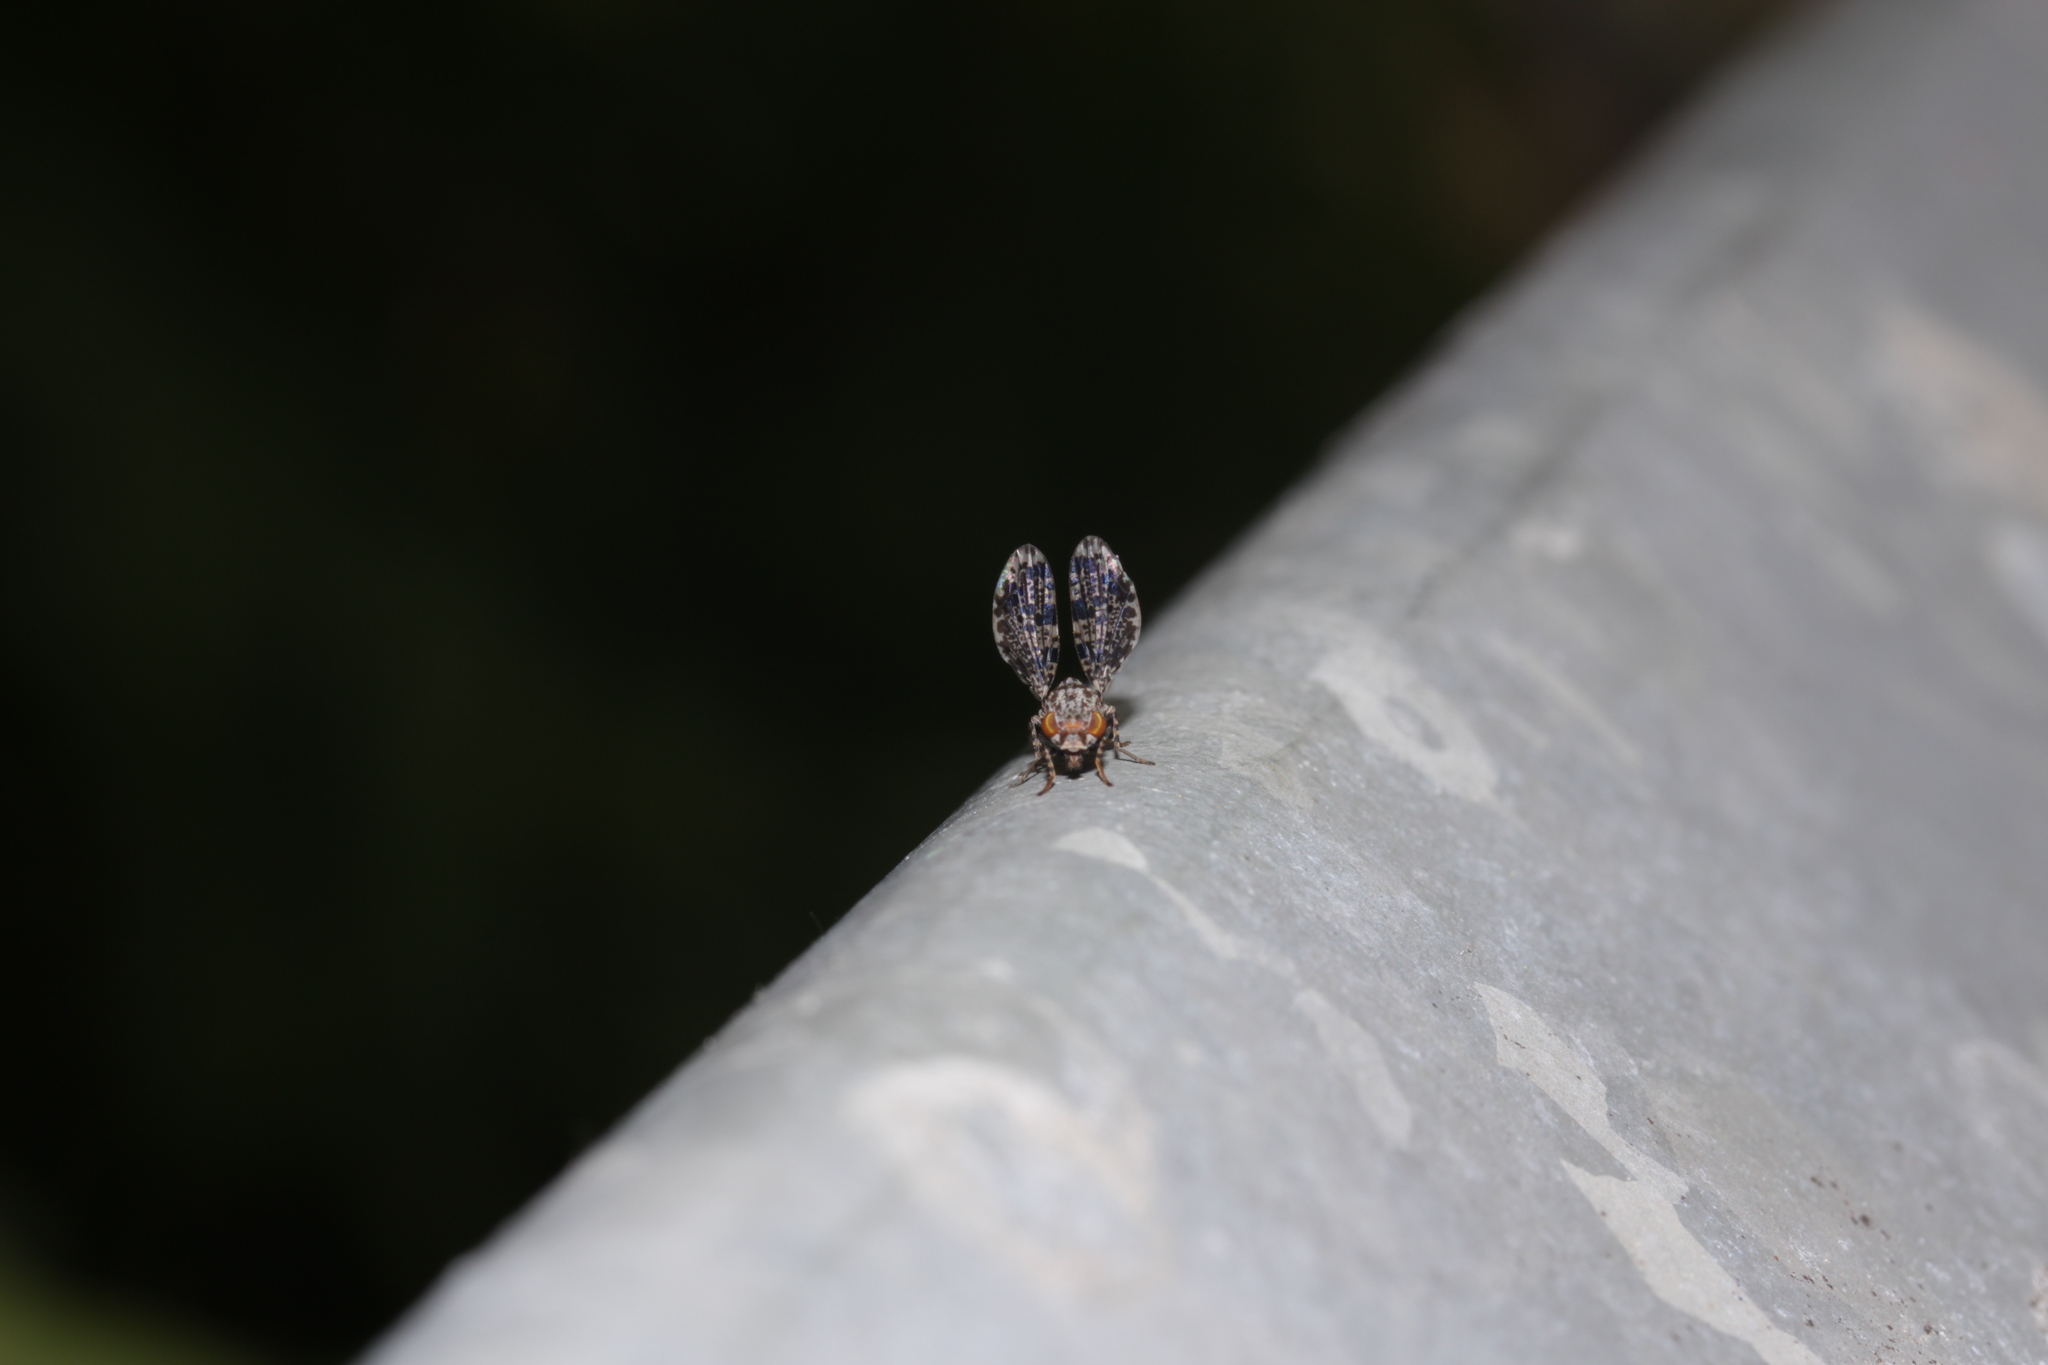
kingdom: Animalia
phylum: Arthropoda
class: Insecta
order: Diptera
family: Ulidiidae
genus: Callopistromyia
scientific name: Callopistromyia annulipes
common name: Peacock fly
